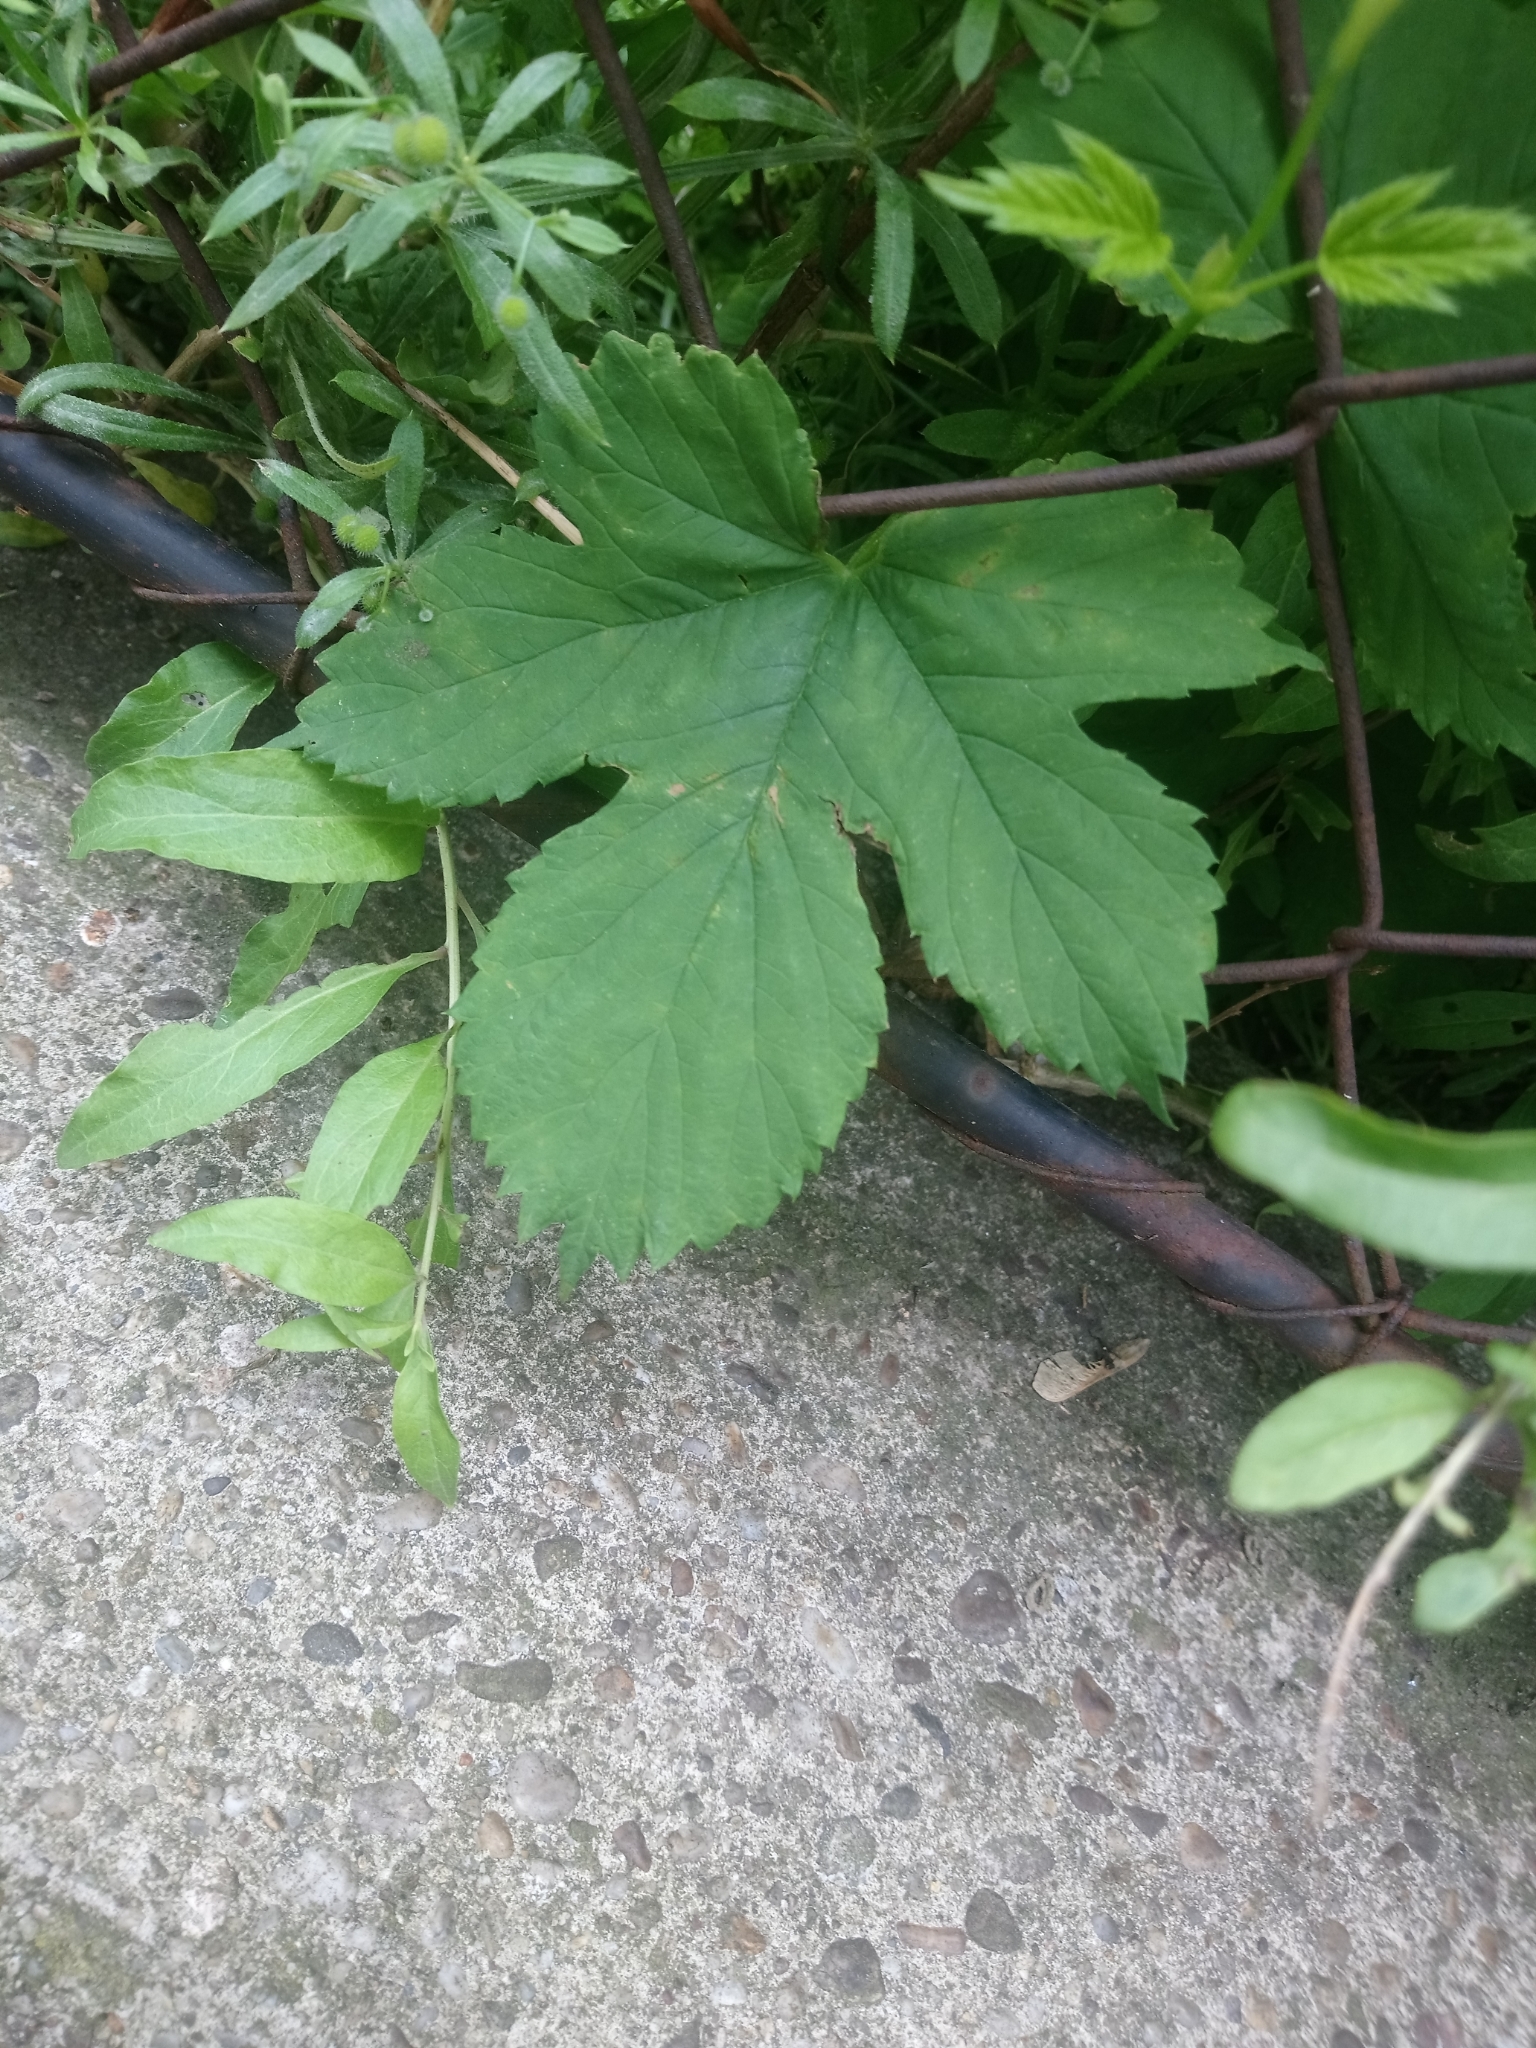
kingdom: Plantae
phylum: Tracheophyta
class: Magnoliopsida
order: Rosales
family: Cannabaceae
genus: Humulus
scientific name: Humulus lupulus
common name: Hop
